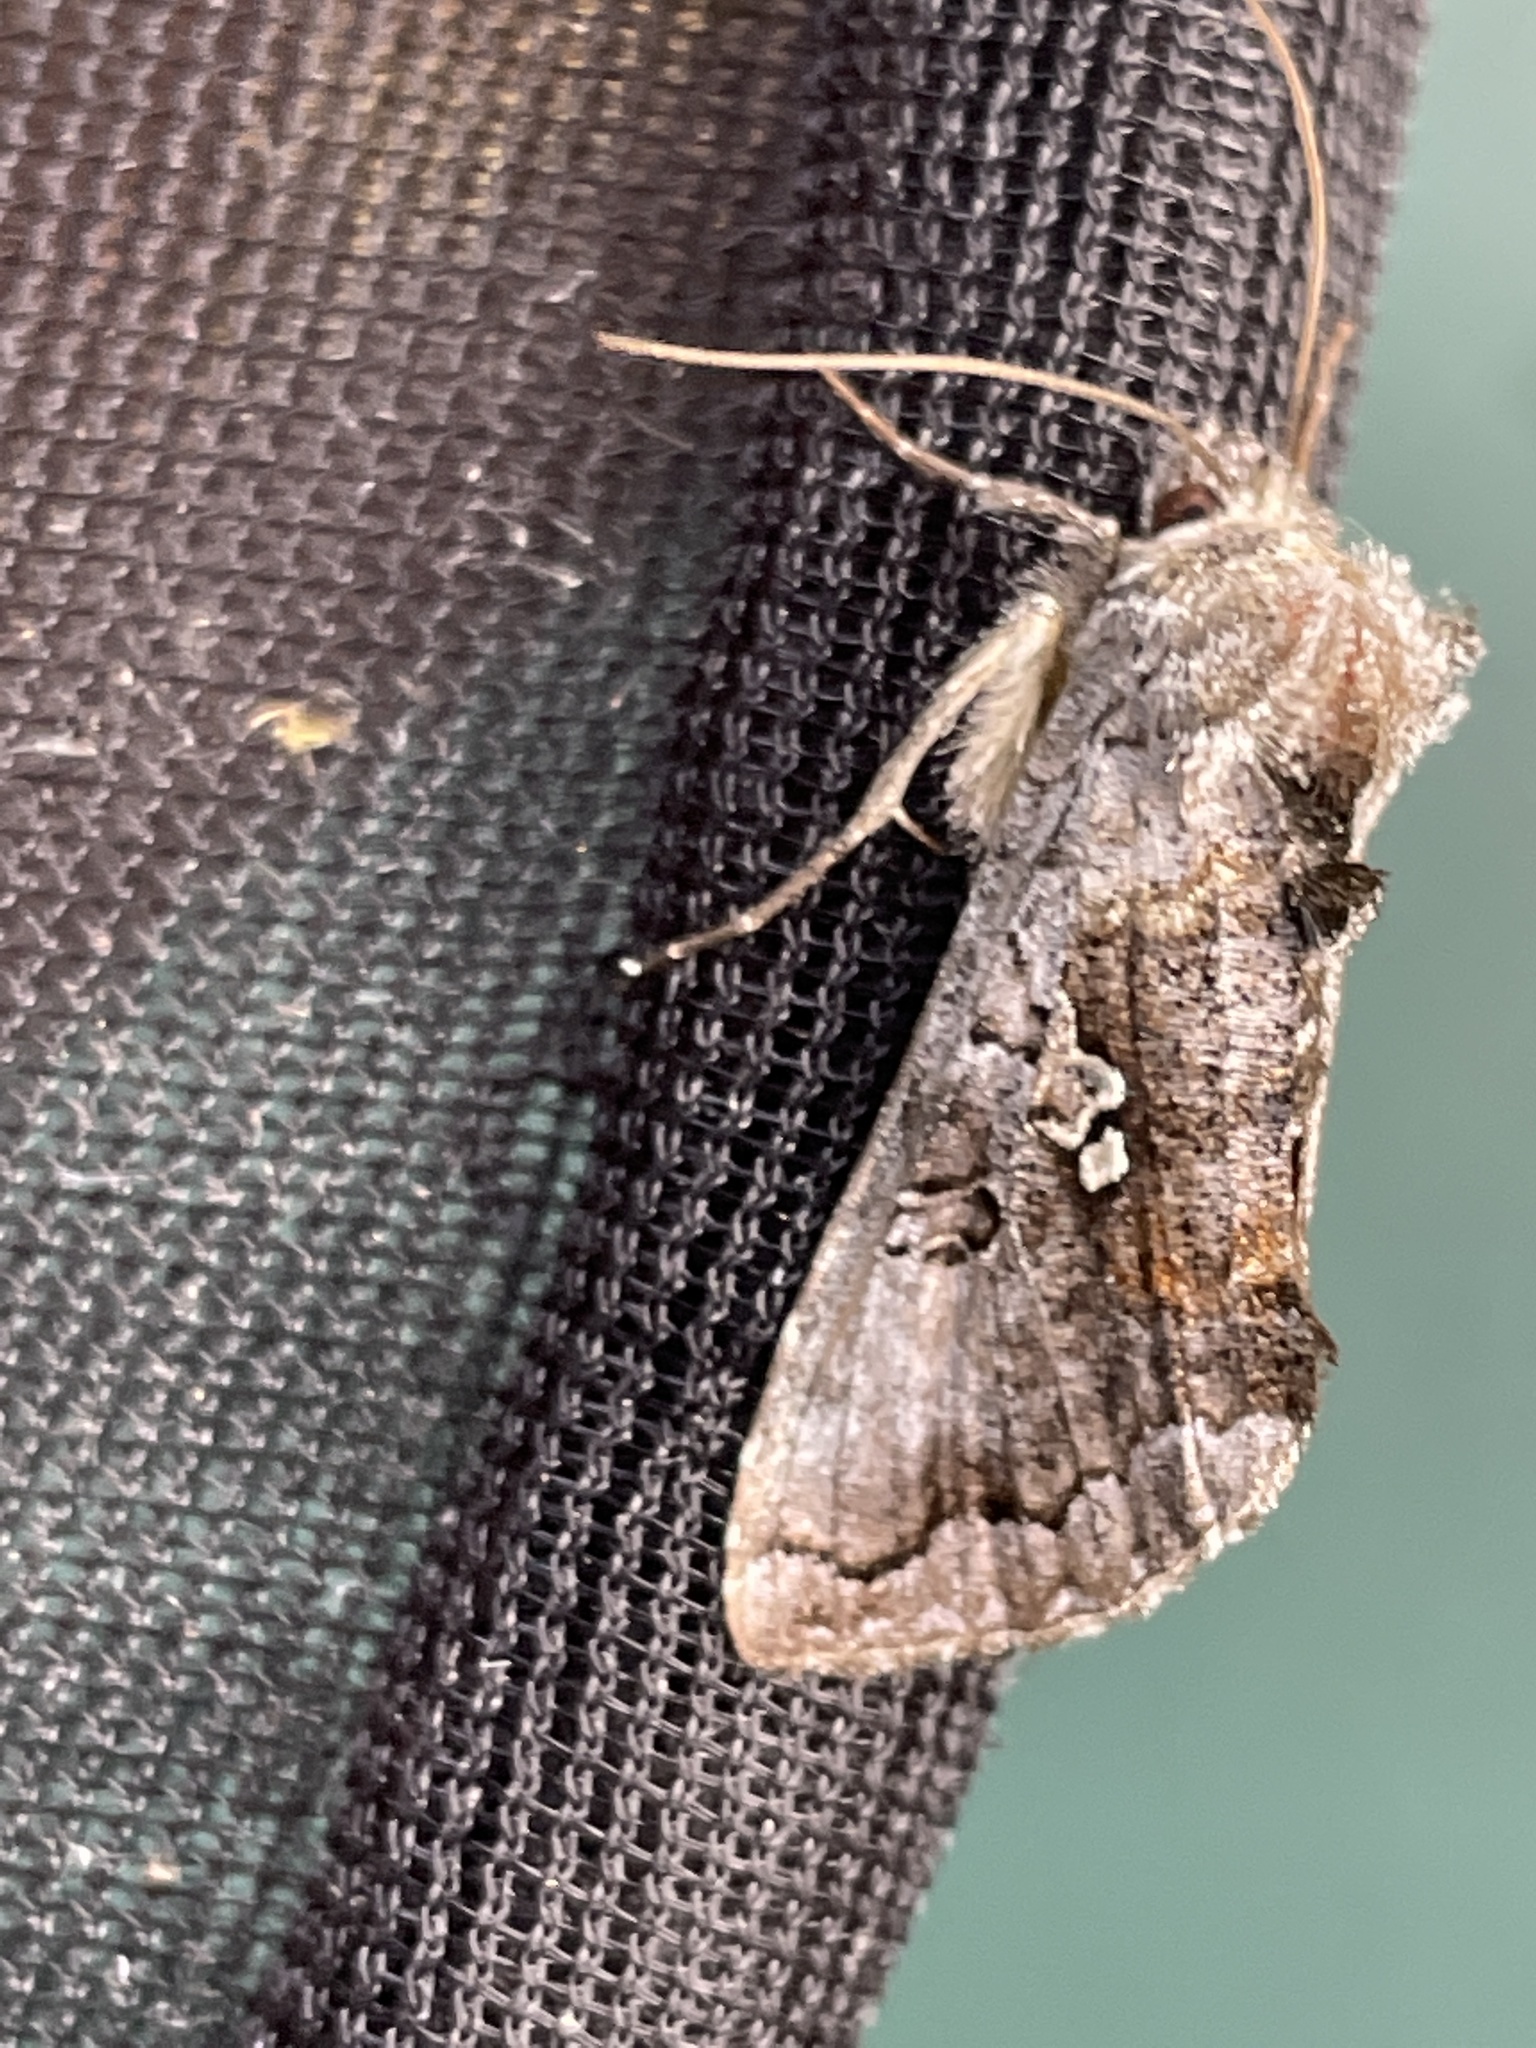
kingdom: Animalia
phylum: Arthropoda
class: Insecta
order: Lepidoptera
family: Noctuidae
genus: Syngrapha
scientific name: Syngrapha interrogationis
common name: Scarce silver y
